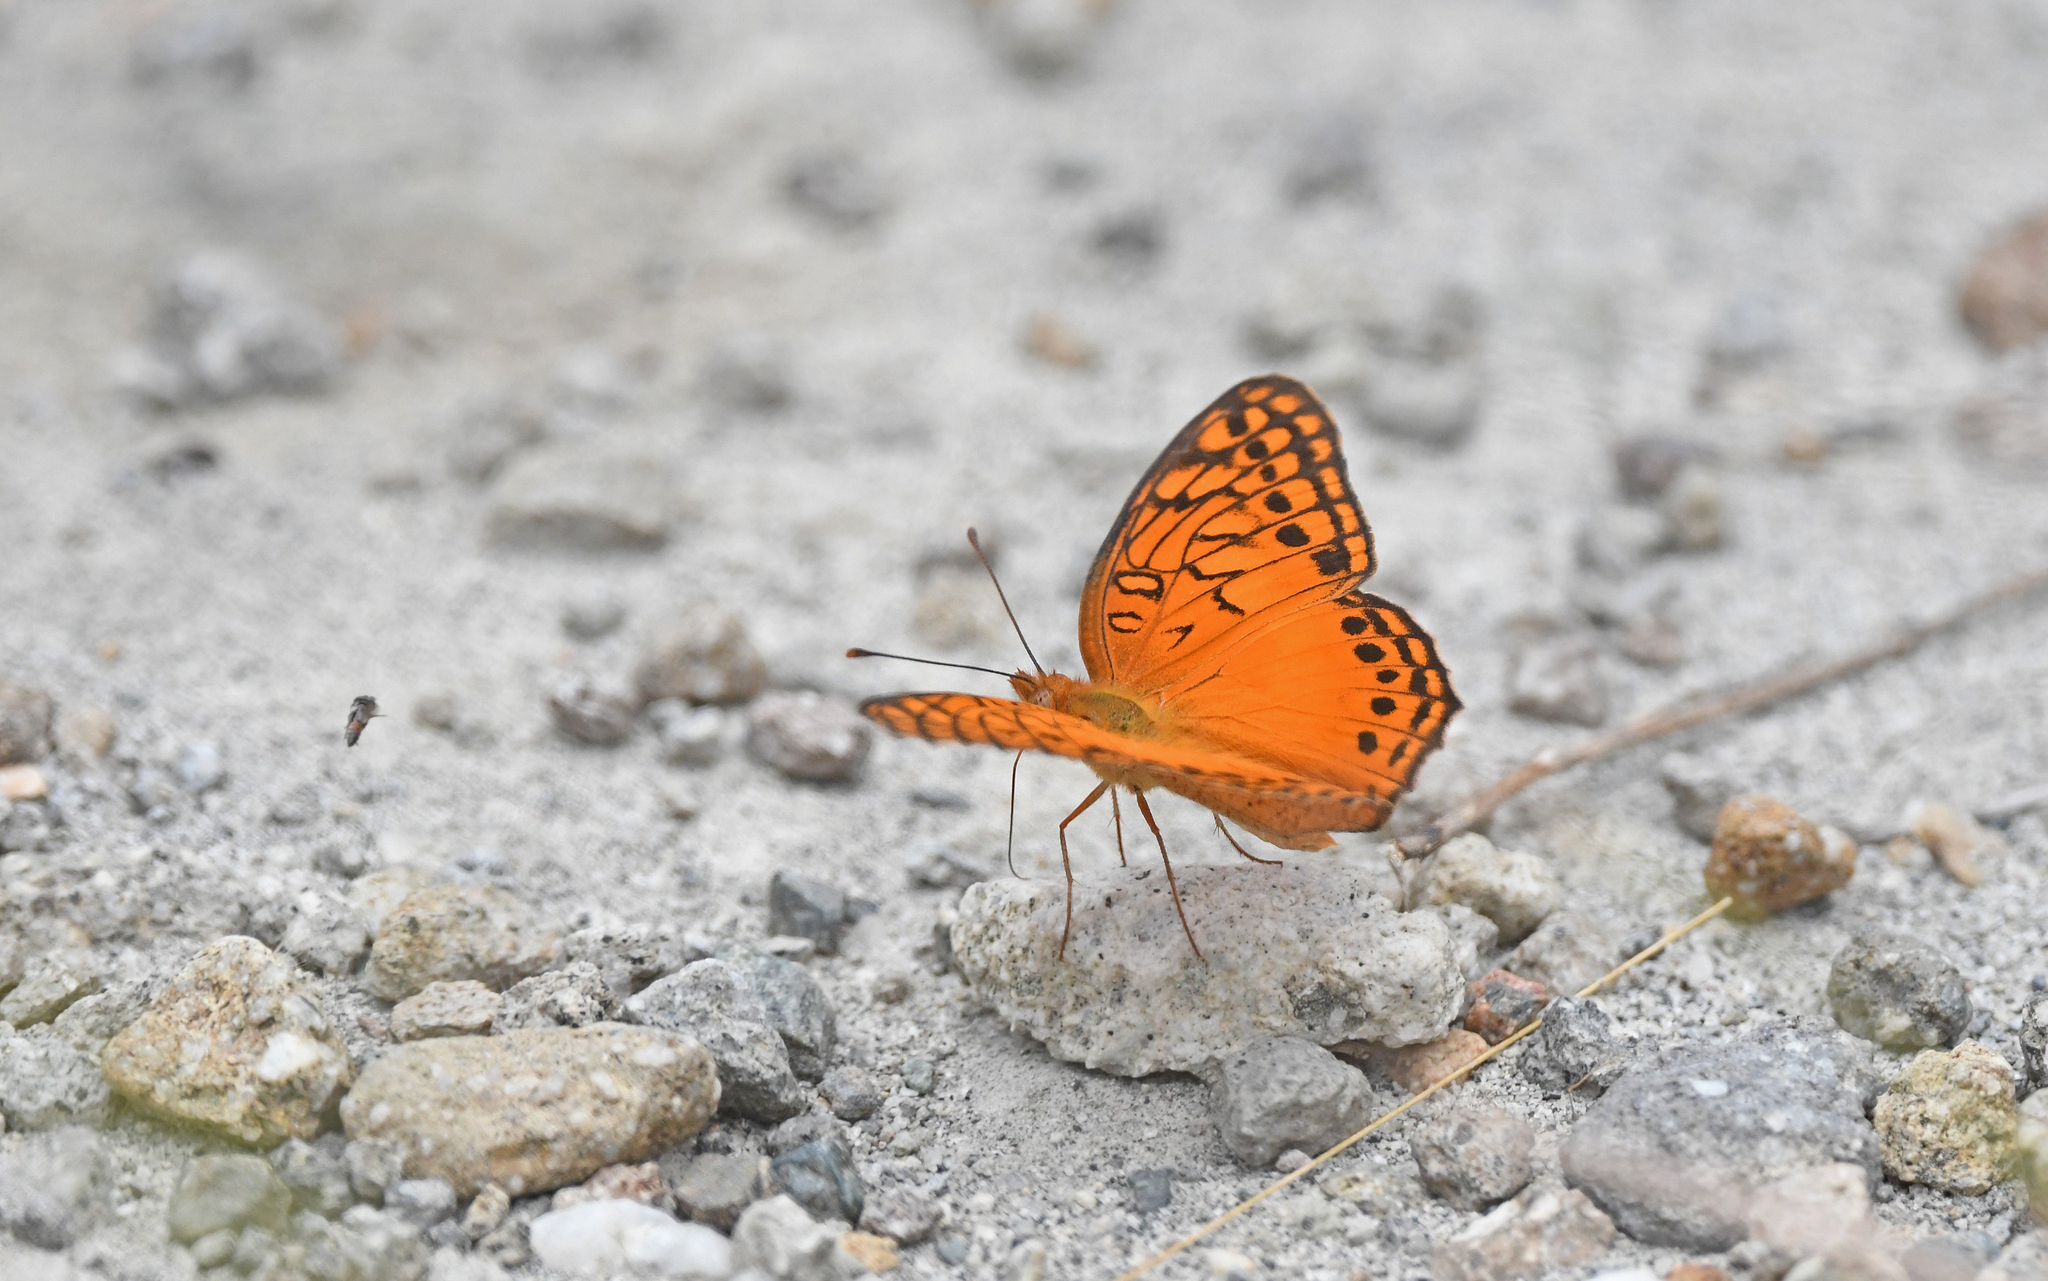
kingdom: Animalia
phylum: Arthropoda
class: Insecta
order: Lepidoptera
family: Nymphalidae
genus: Euptoieta
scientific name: Euptoieta hegesia
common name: Mexican fritillary
